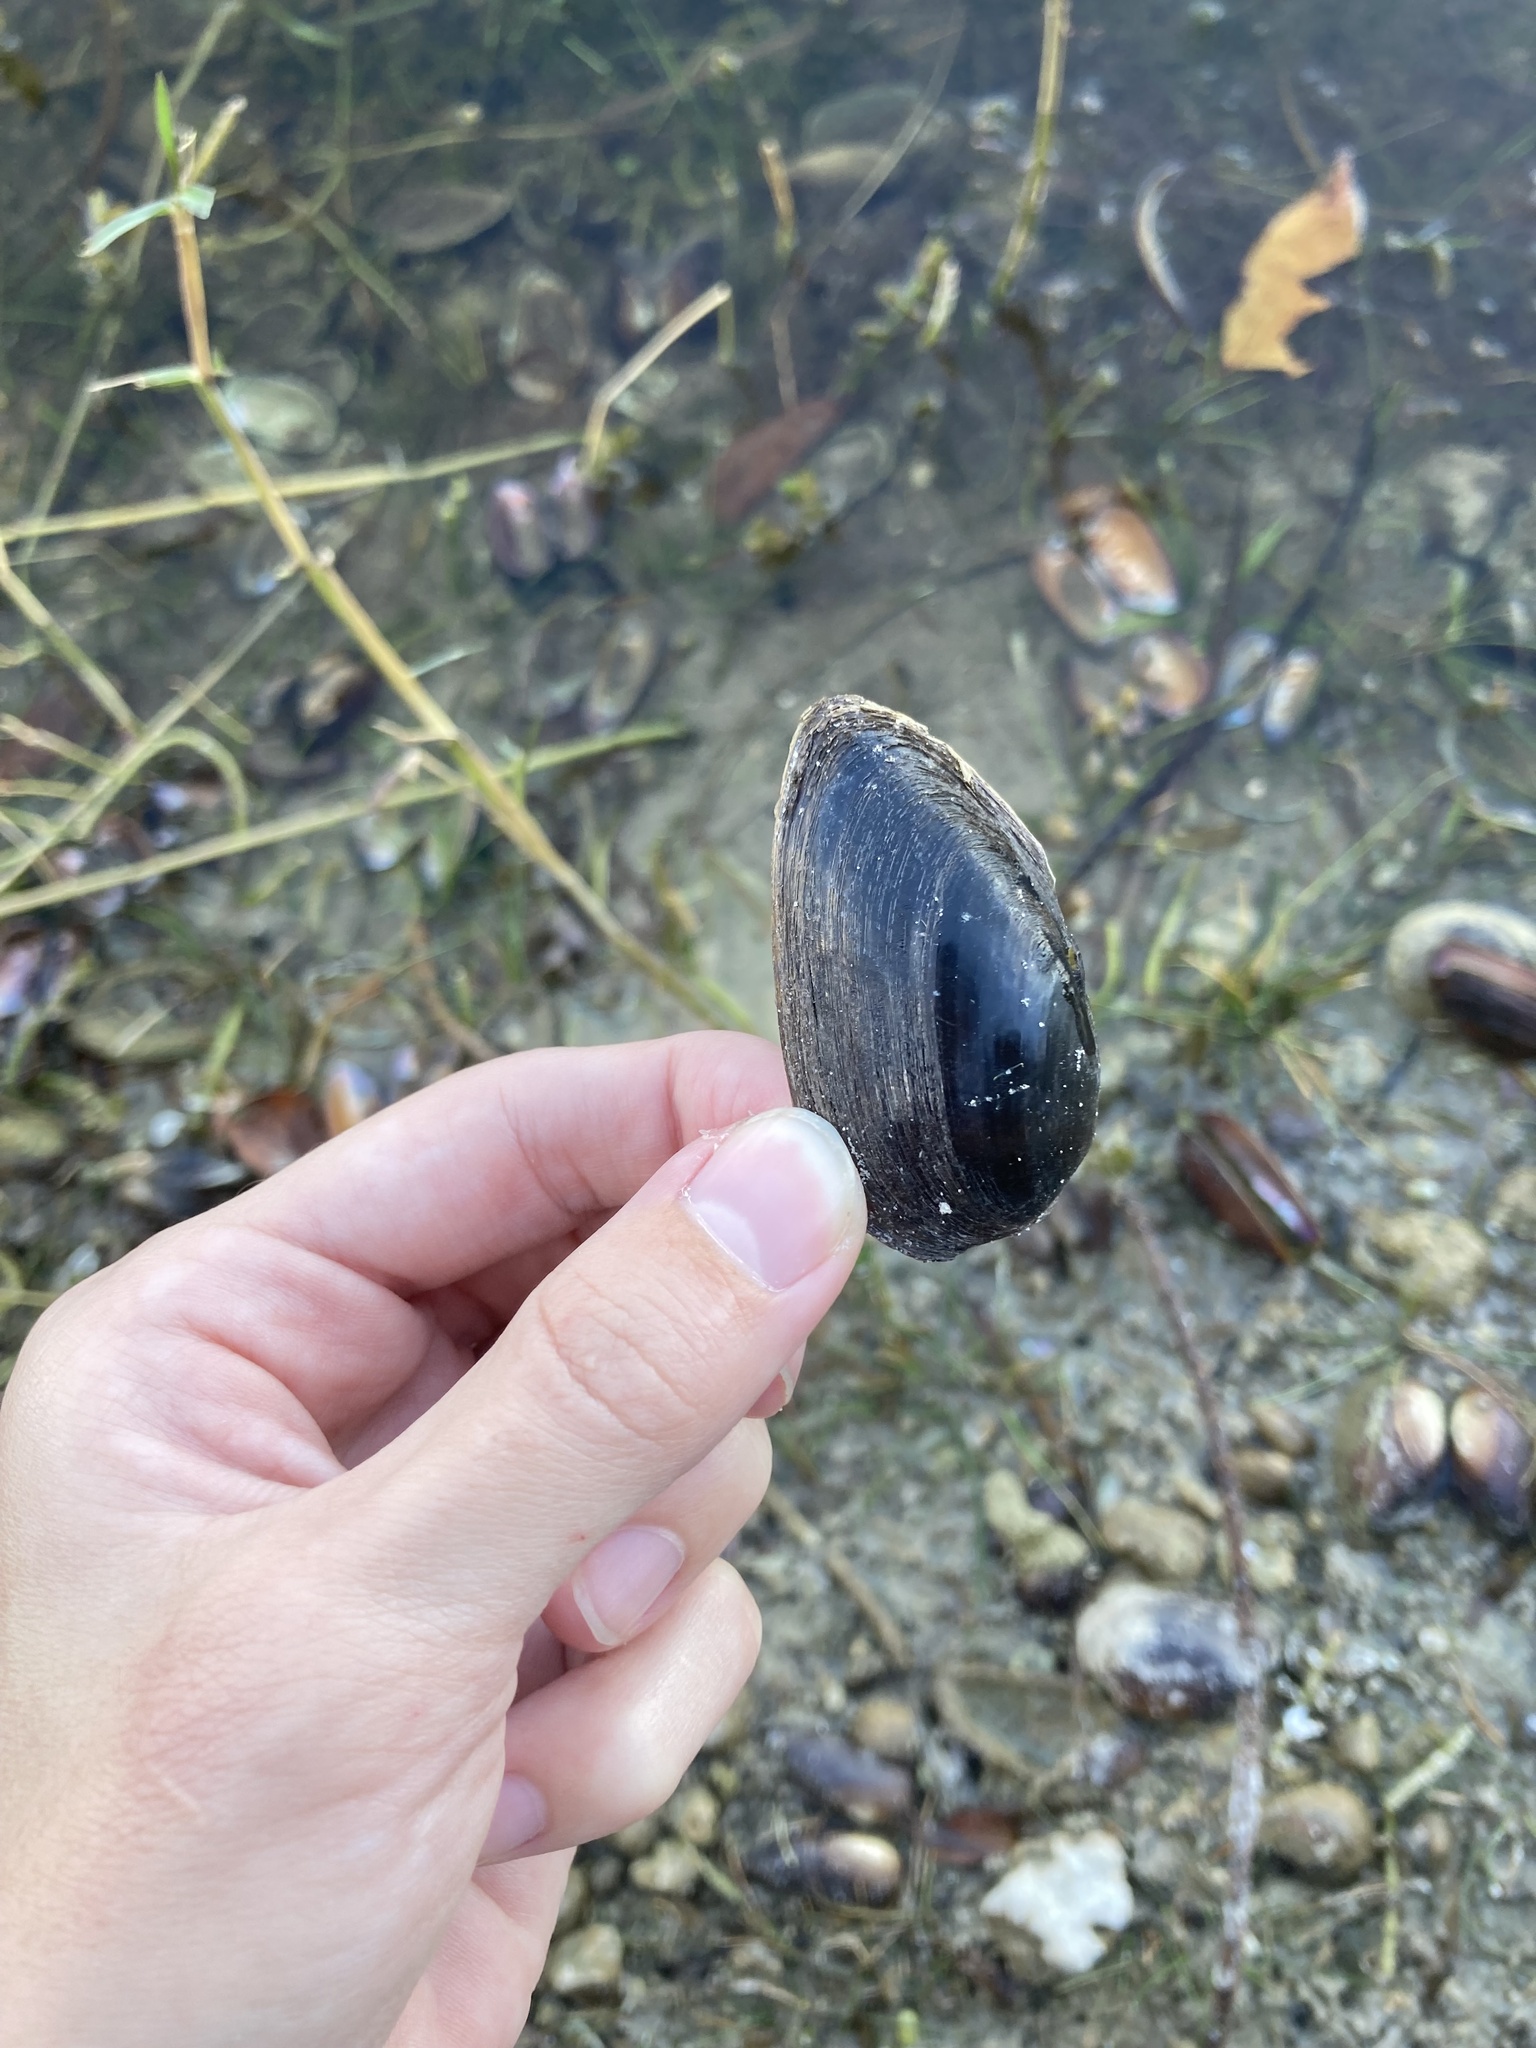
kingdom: Animalia
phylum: Mollusca
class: Bivalvia
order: Unionida
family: Unionidae
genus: Elliptio
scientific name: Elliptio jayensis
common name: Florida spike
